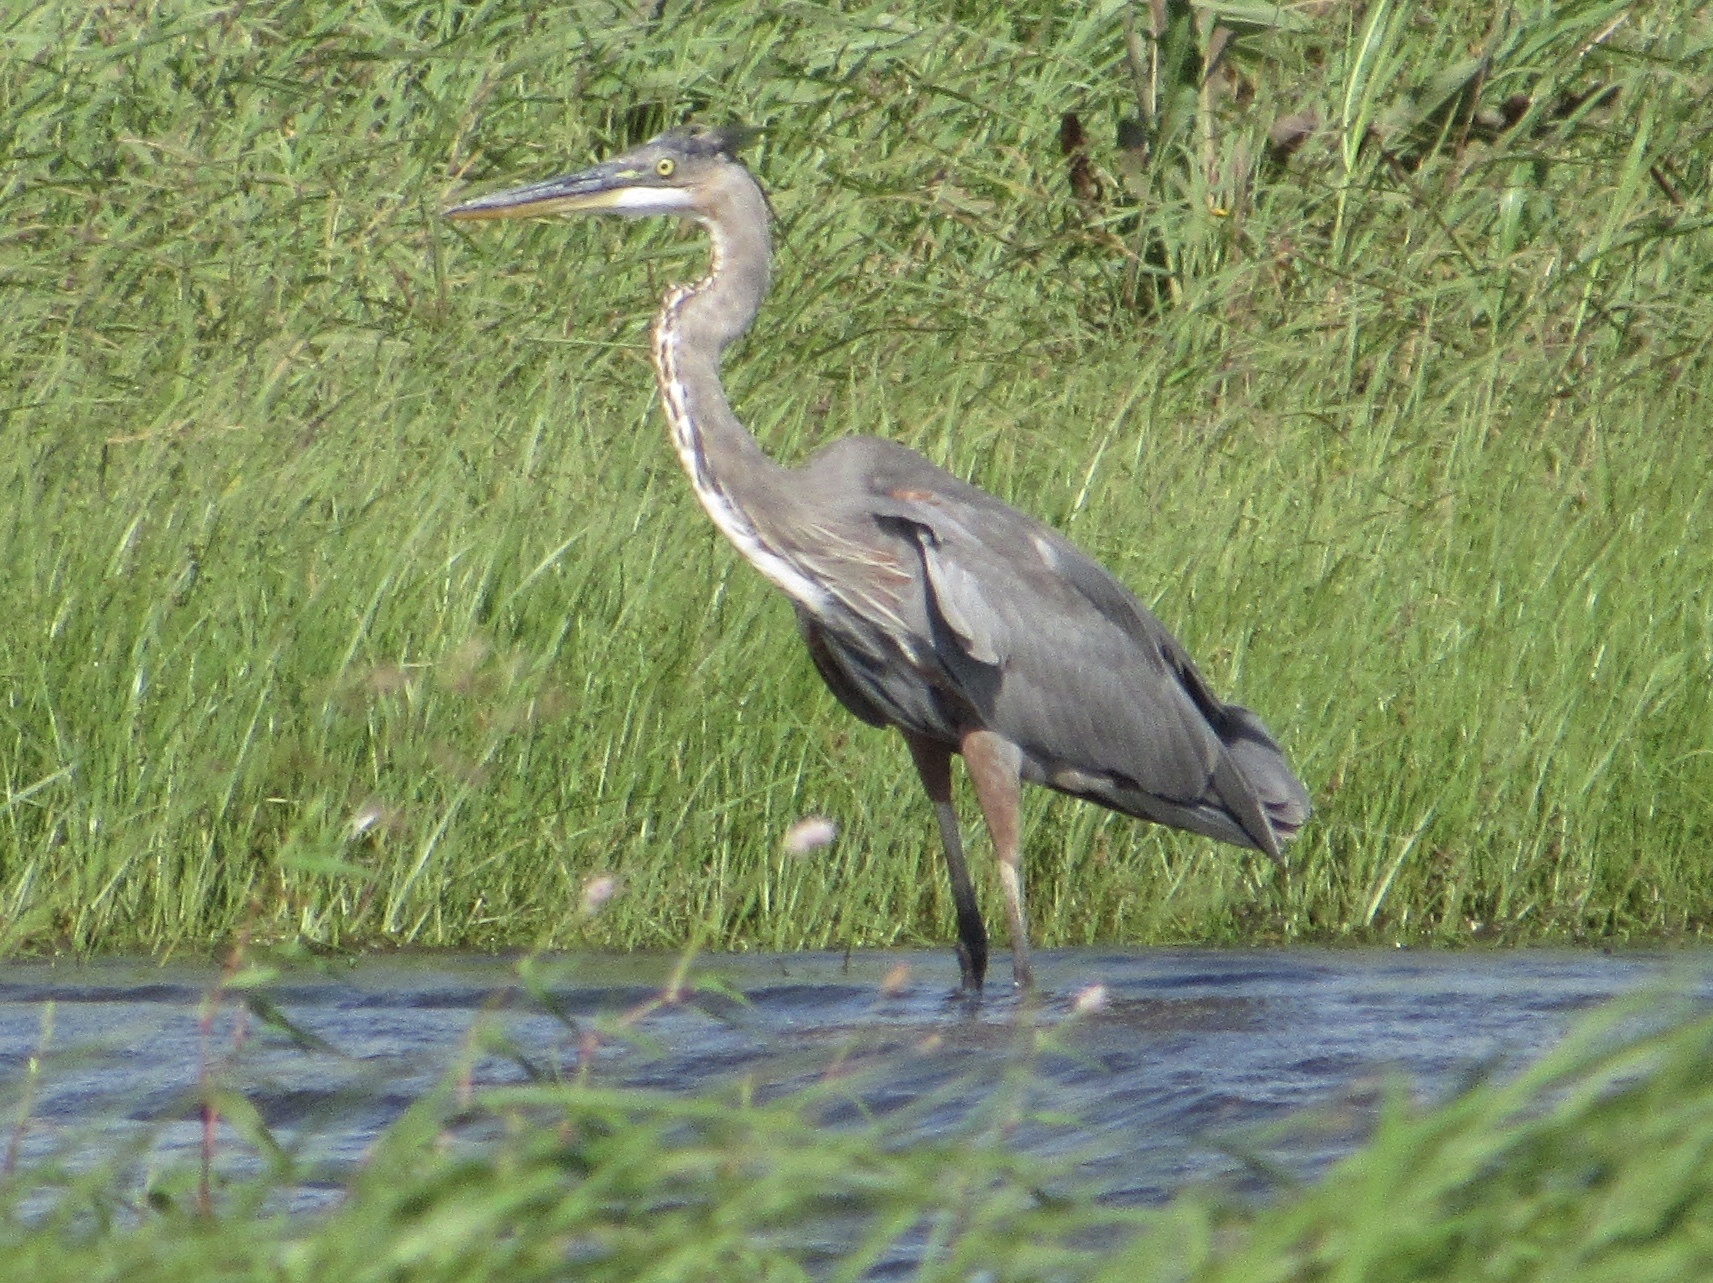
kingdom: Animalia
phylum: Chordata
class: Aves
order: Pelecaniformes
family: Ardeidae
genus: Ardea
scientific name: Ardea herodias
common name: Great blue heron
